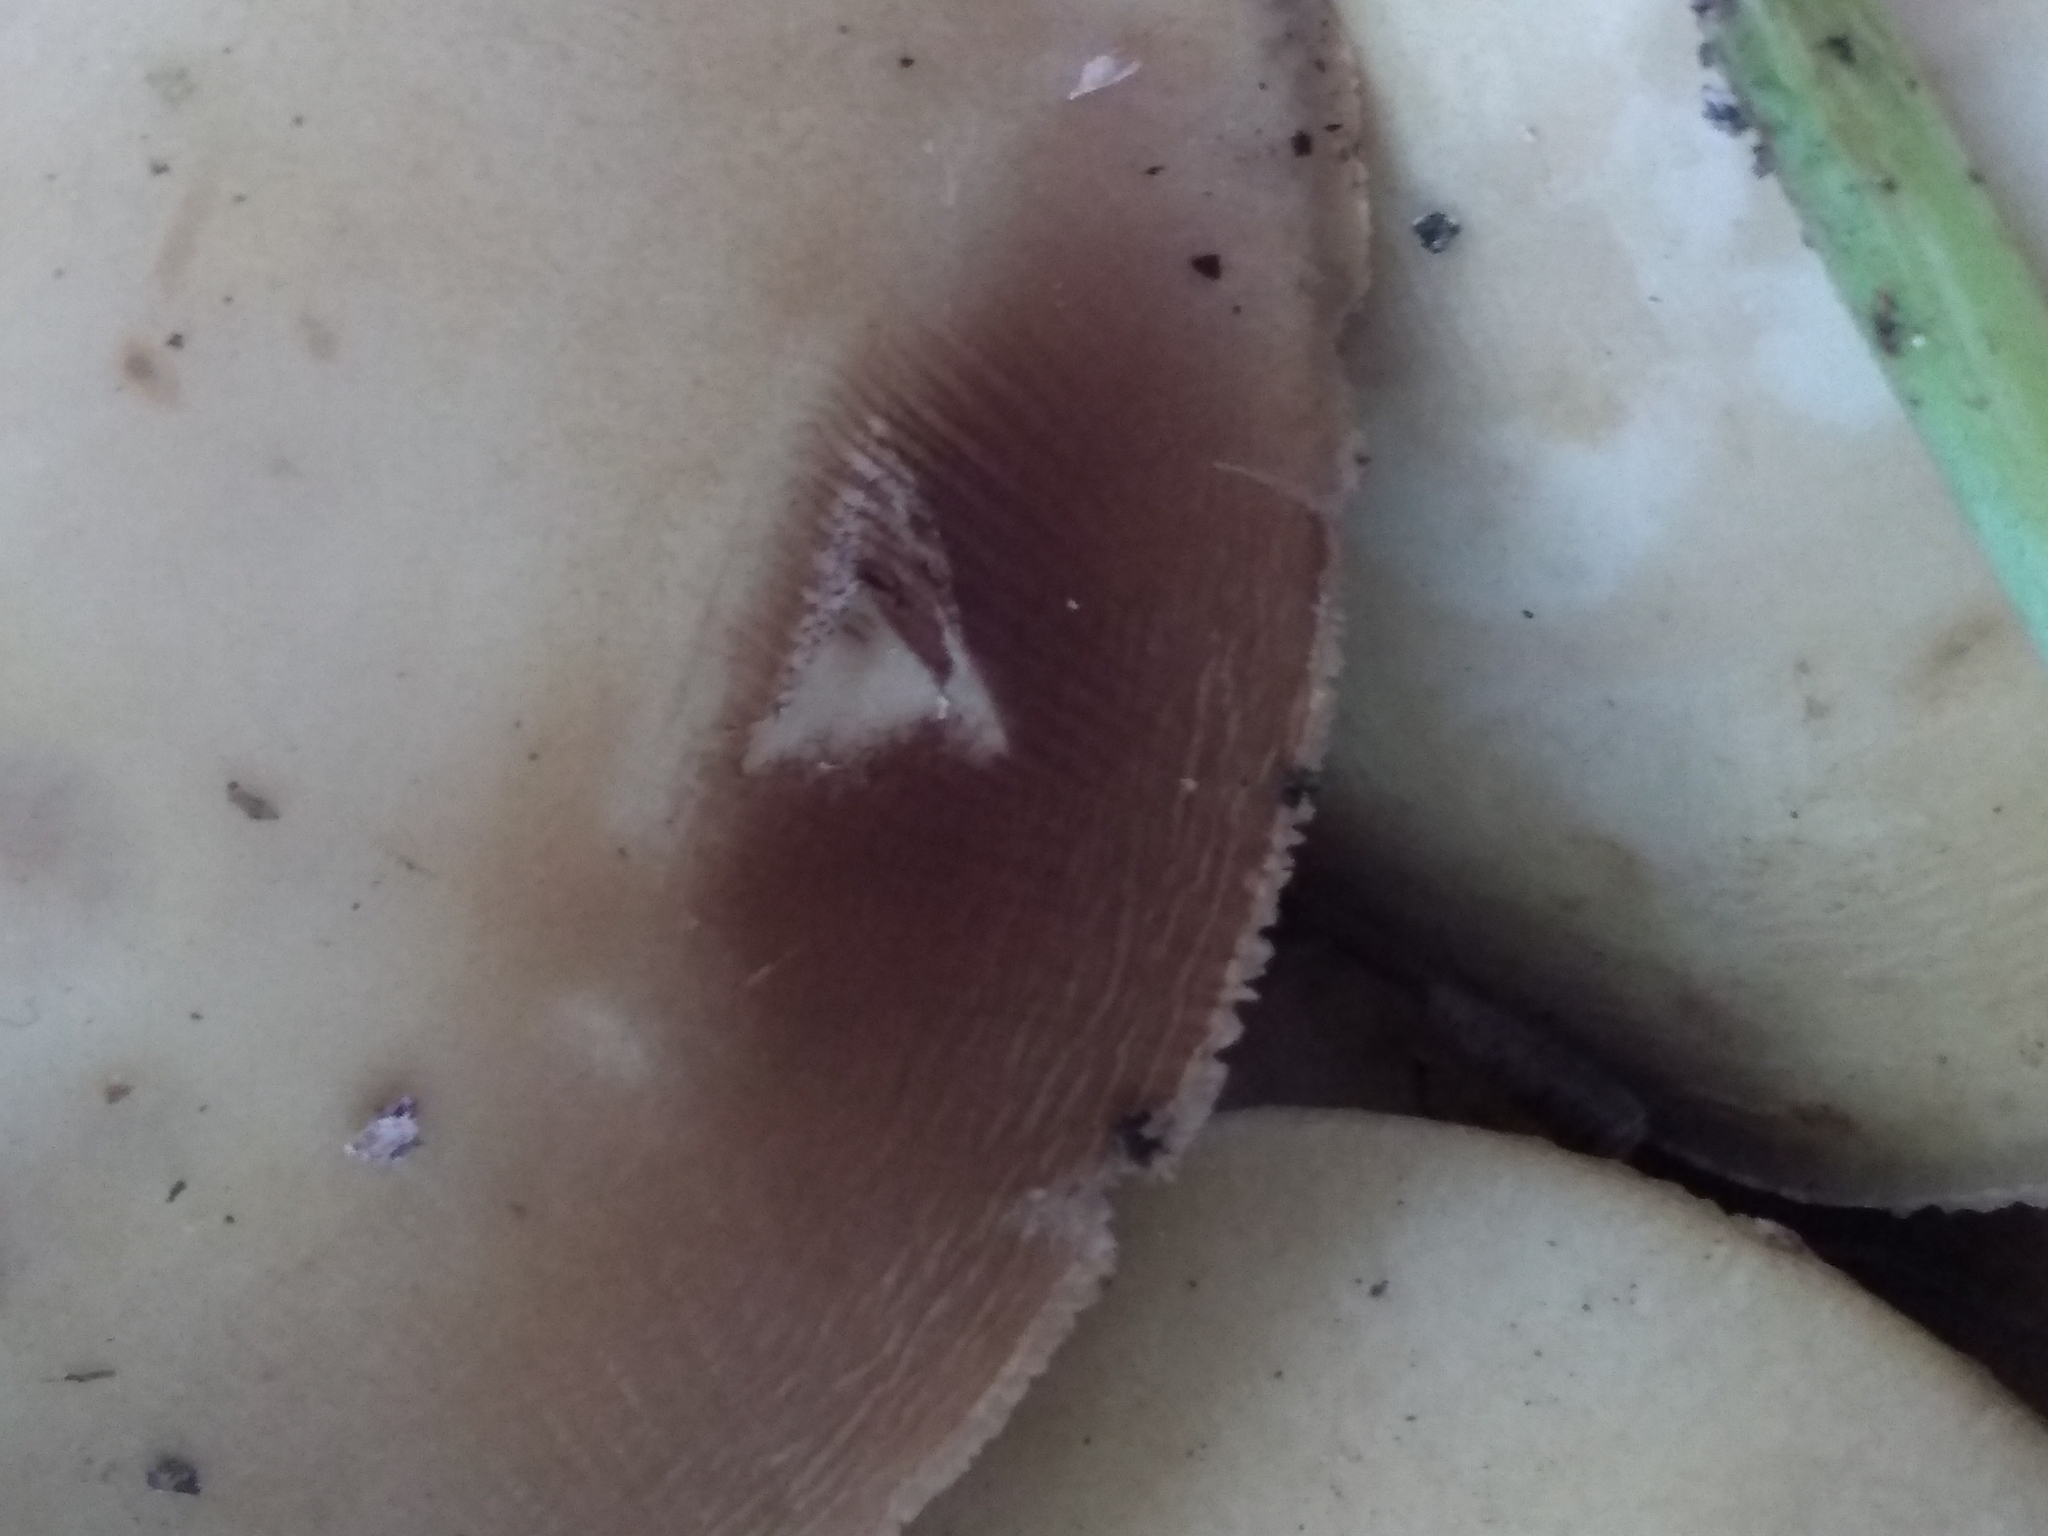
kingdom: Fungi
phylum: Basidiomycota
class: Agaricomycetes
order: Agaricales
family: Strophariaceae
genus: Agrocybe
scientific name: Agrocybe praecox
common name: Spring fieldcap
